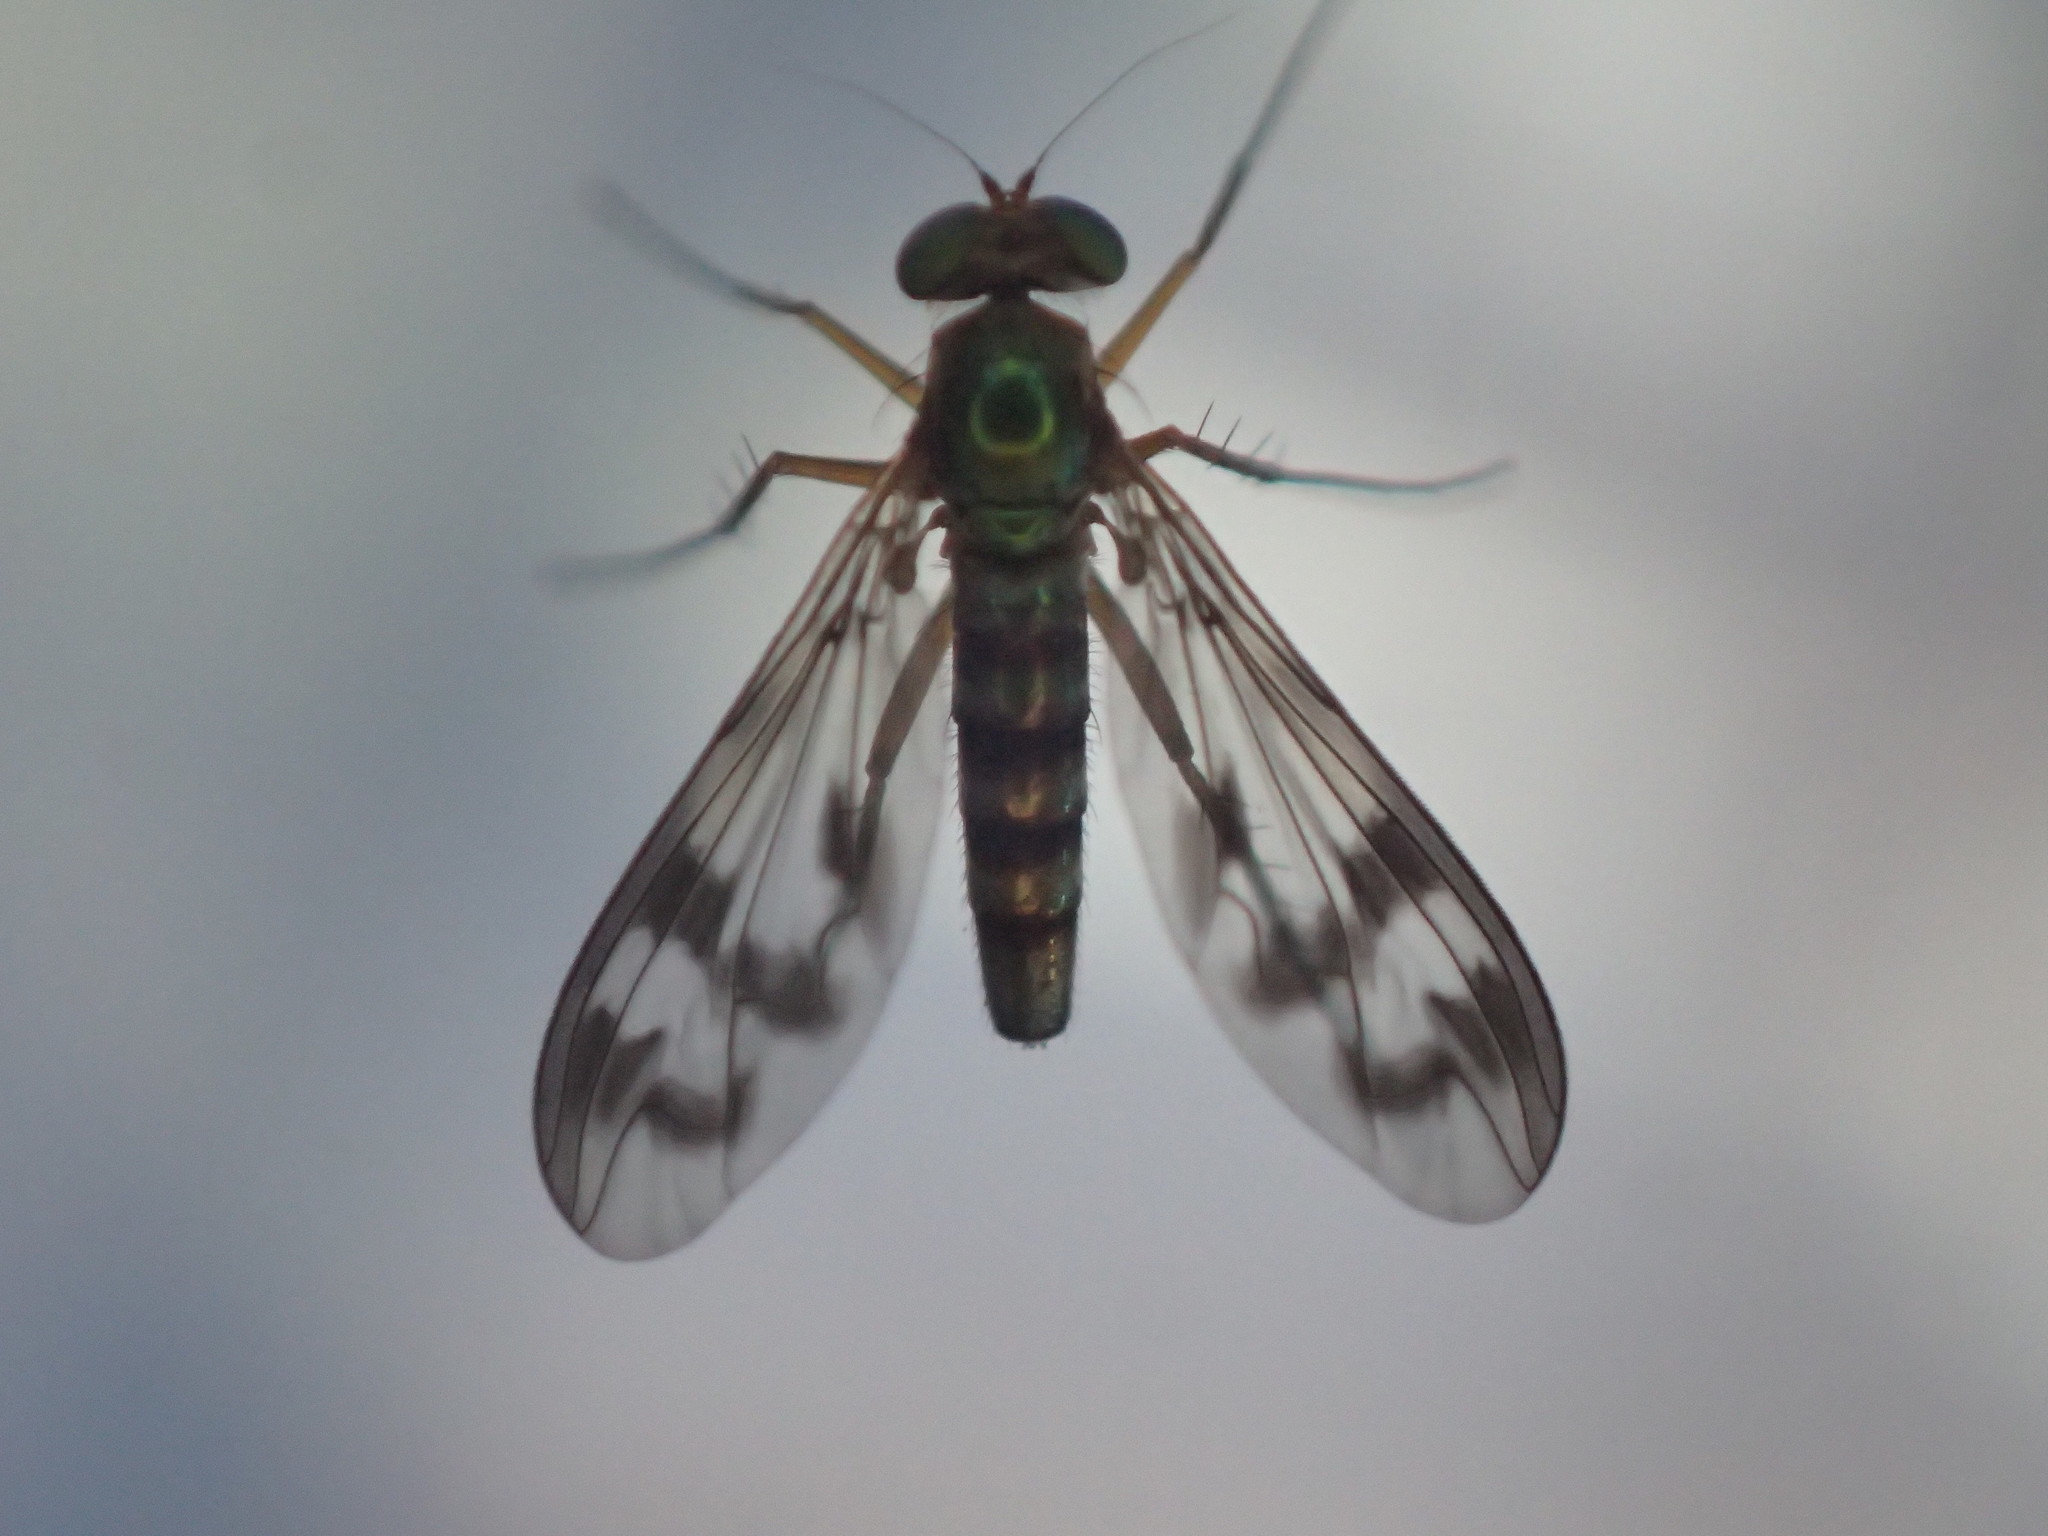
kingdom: Animalia
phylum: Arthropoda
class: Insecta
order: Diptera
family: Dolichopodidae
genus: Heteropsilopus
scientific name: Heteropsilopus ingenuum
